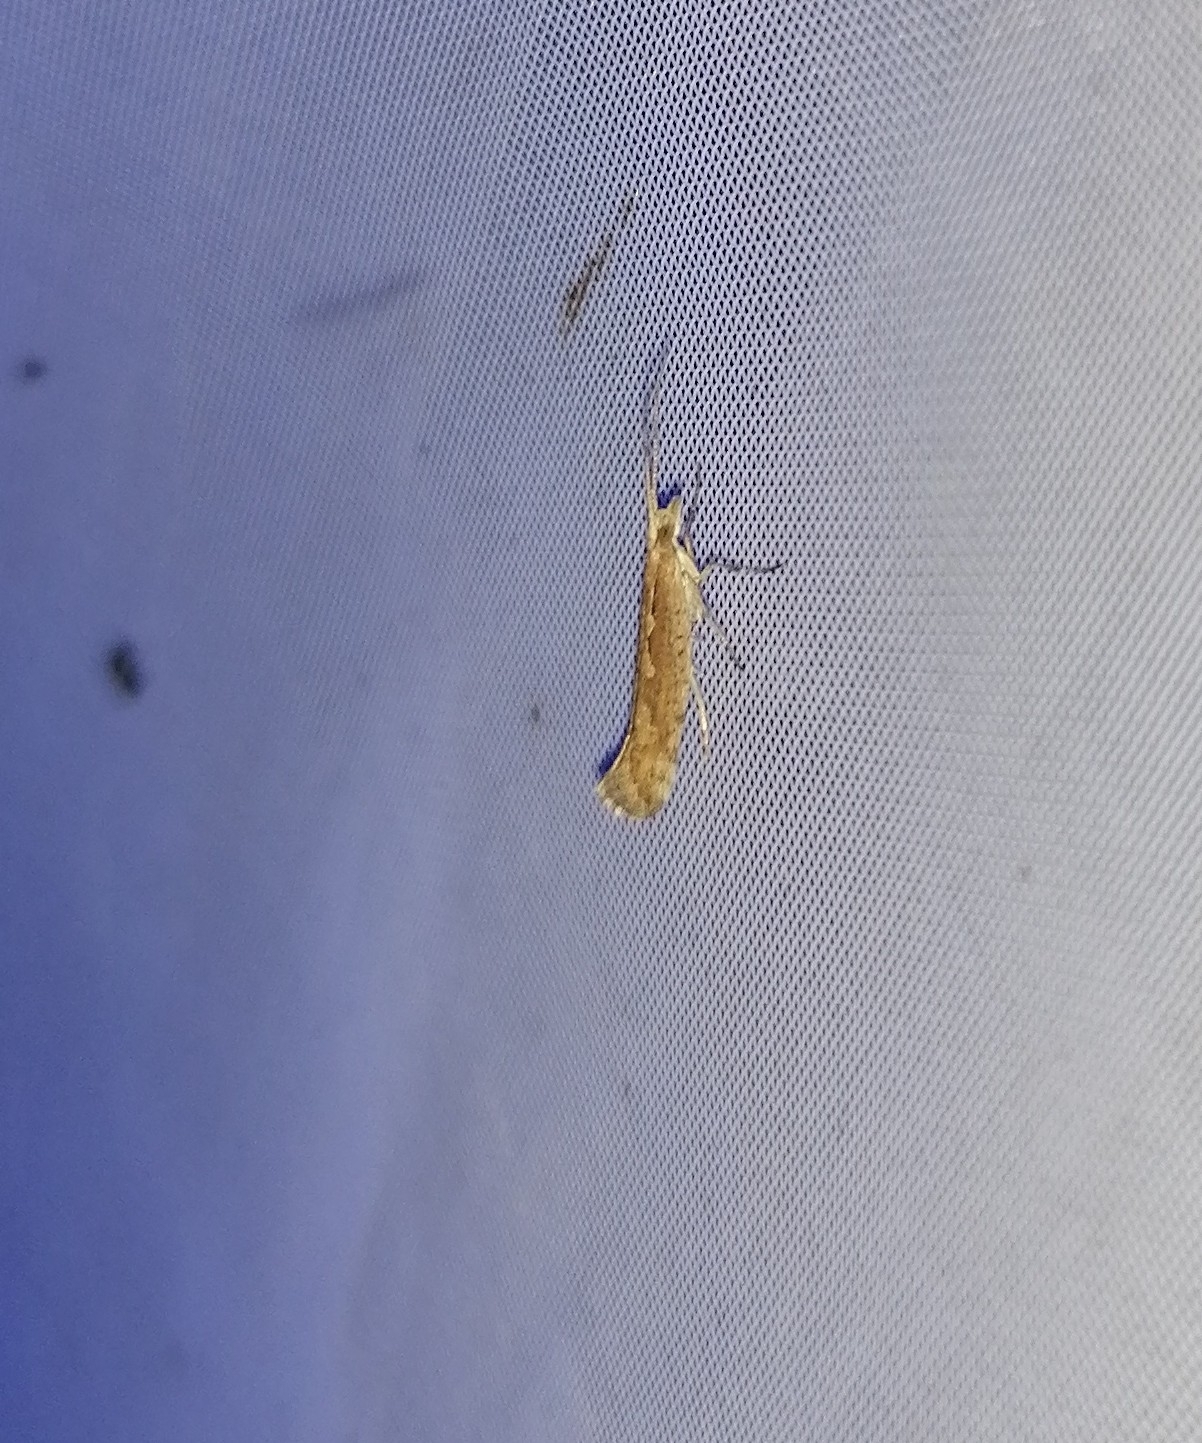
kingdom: Animalia
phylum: Arthropoda
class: Insecta
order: Lepidoptera
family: Plutellidae
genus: Plutella
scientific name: Plutella xylostella
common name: Diamond-back moth
